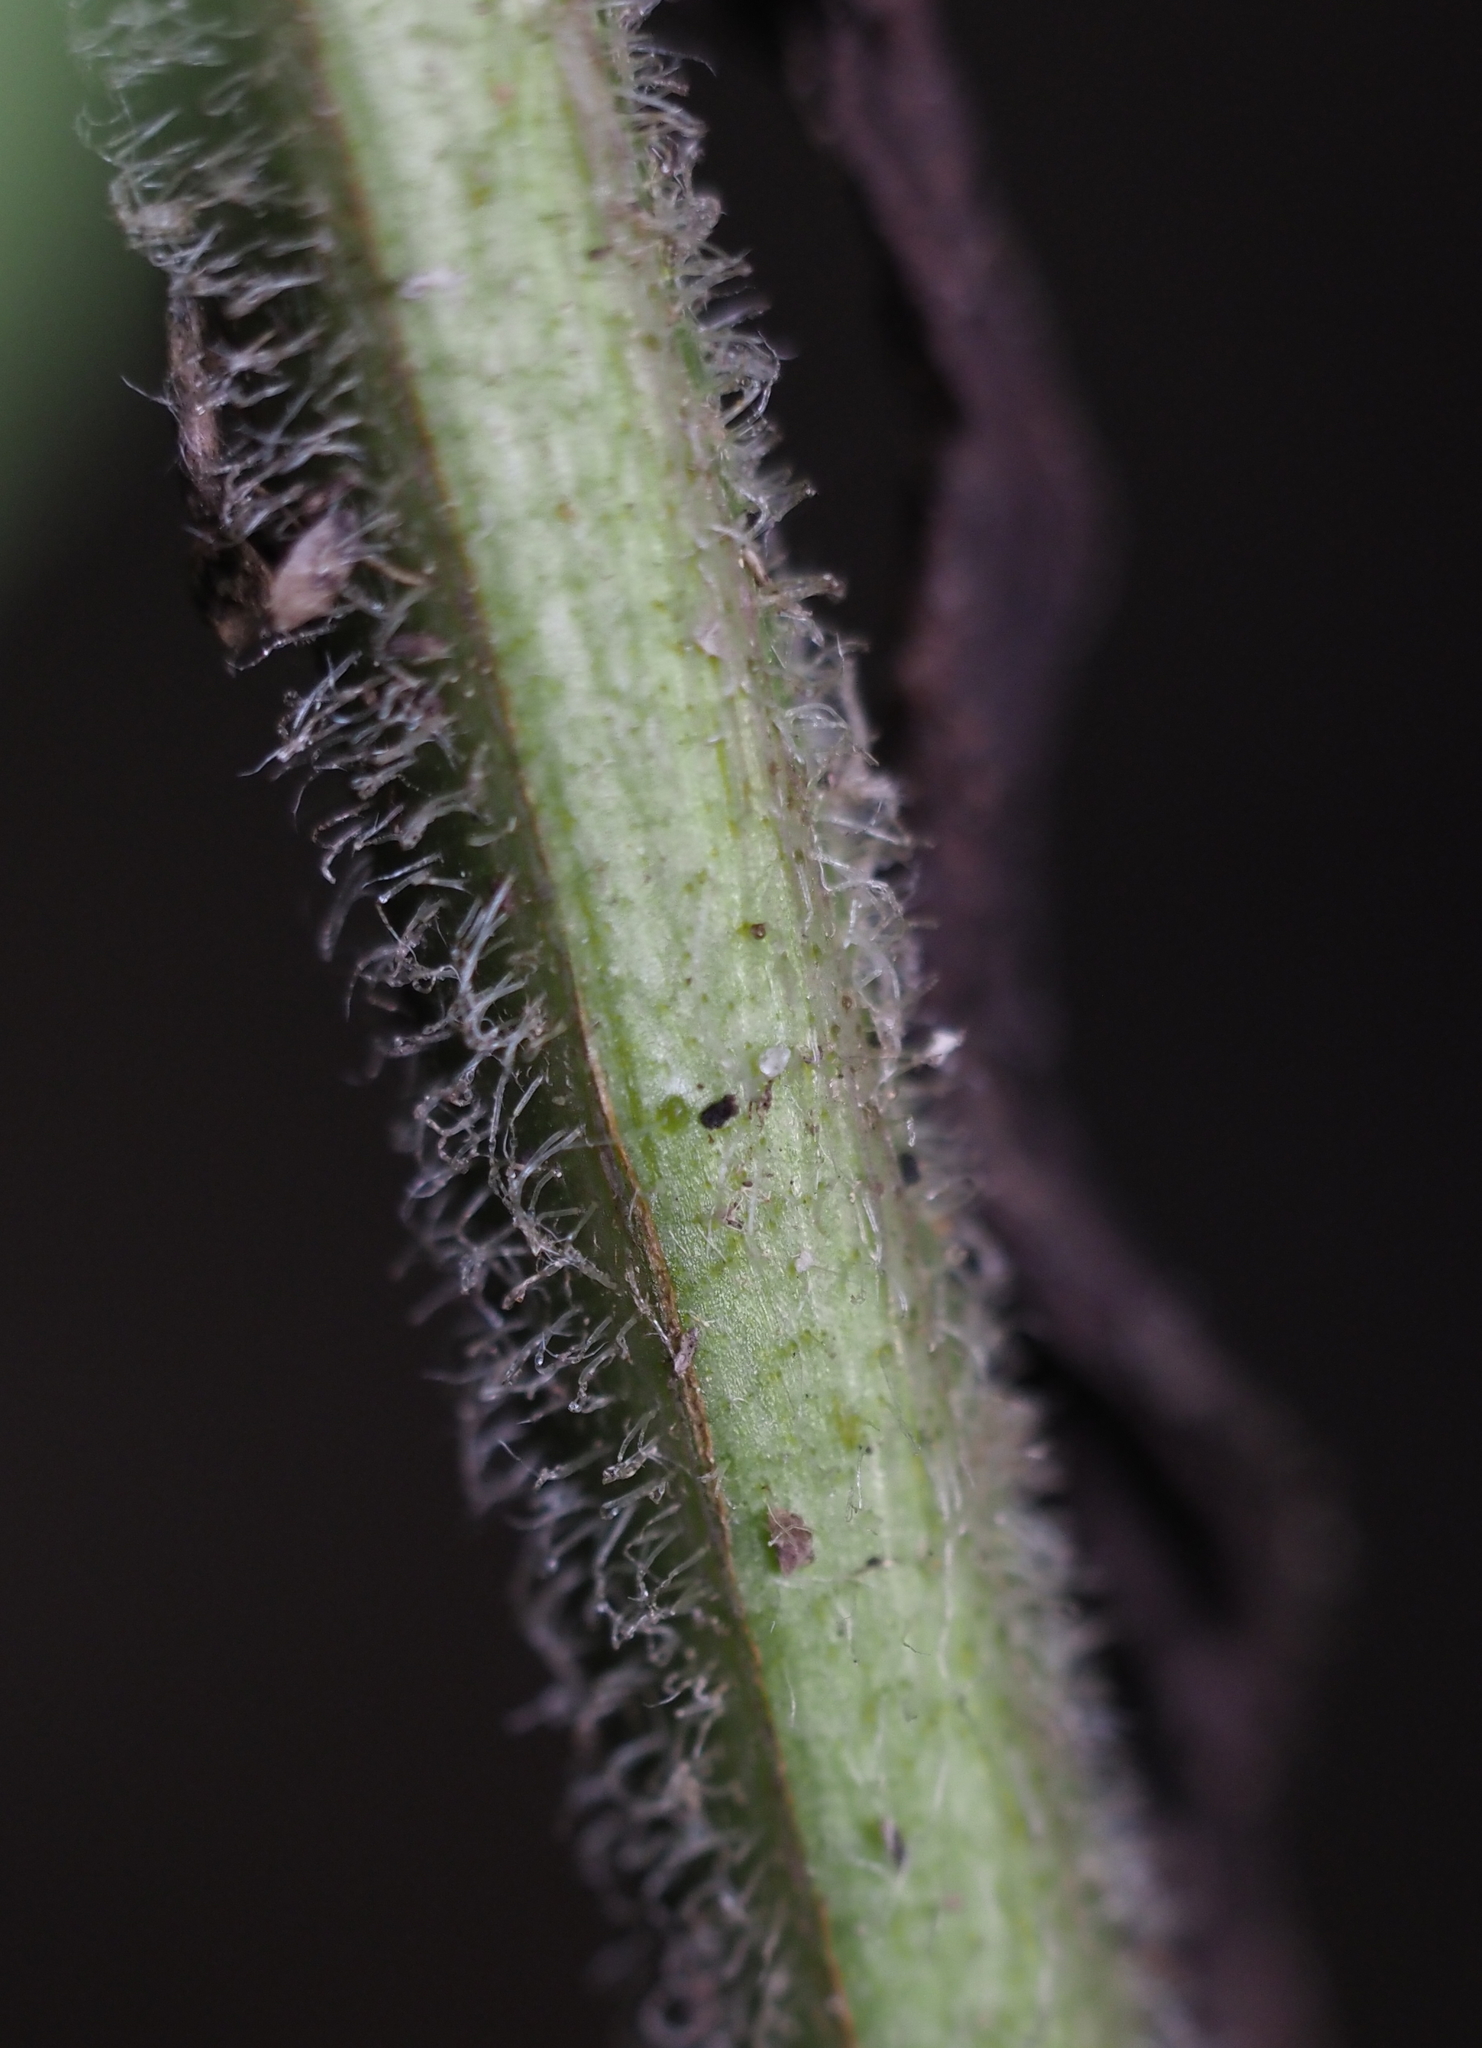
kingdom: Plantae
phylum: Tracheophyta
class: Magnoliopsida
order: Asterales
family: Asteraceae
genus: Symphyotrichum
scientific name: Symphyotrichum lateriflorum
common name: Calico aster
